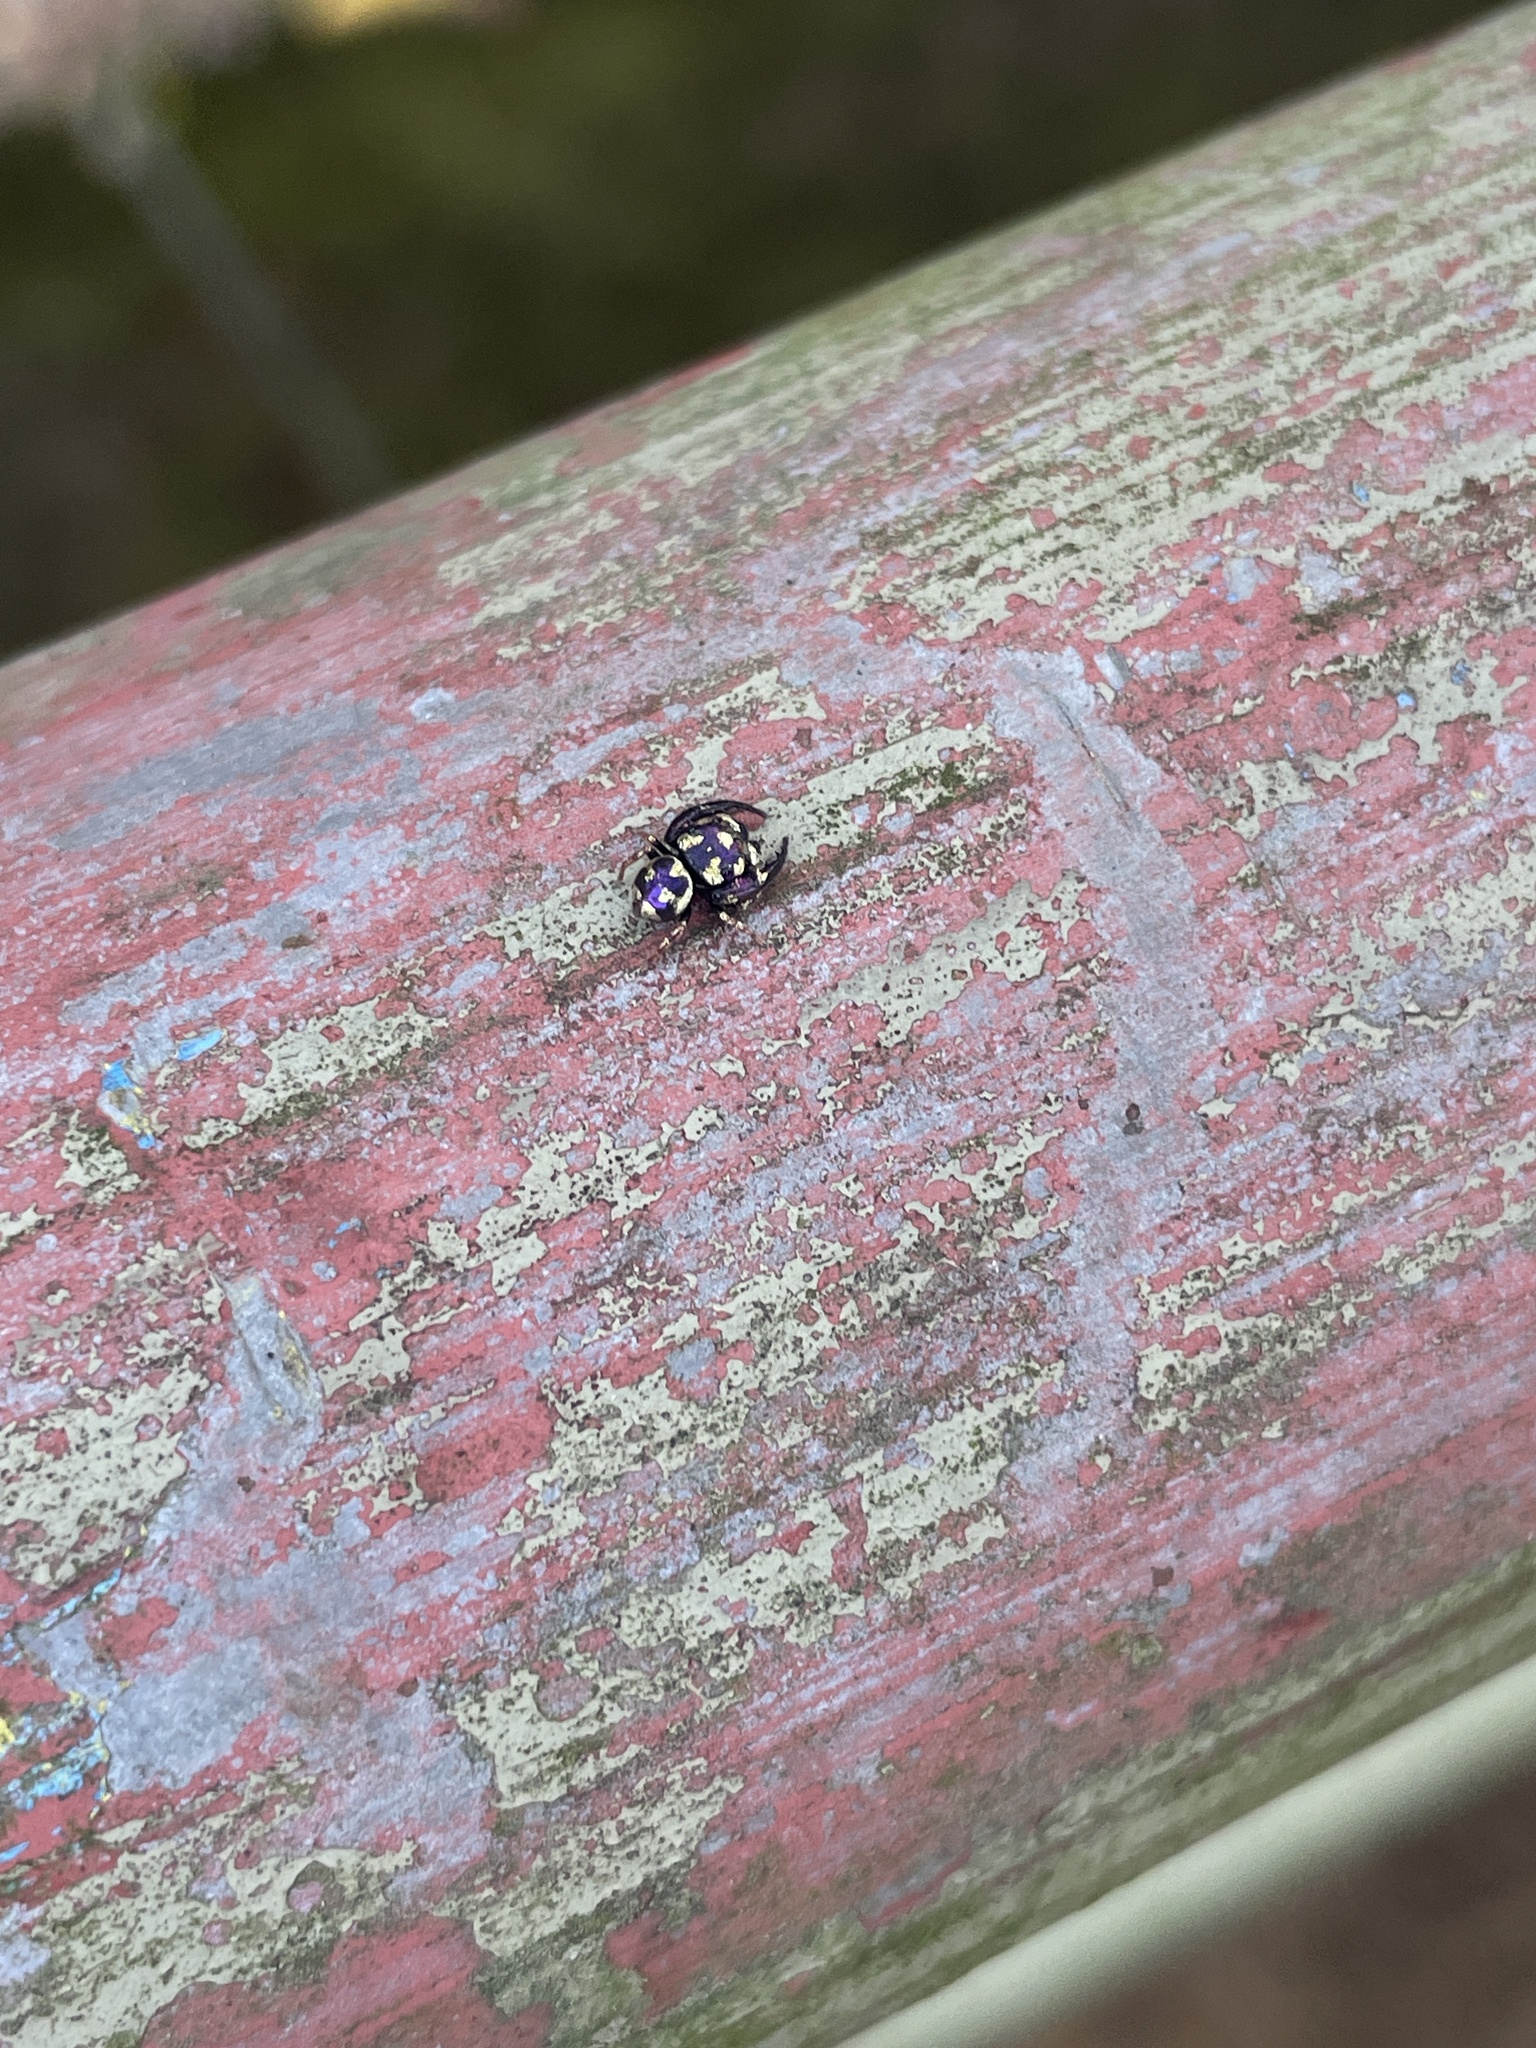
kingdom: Animalia
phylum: Arthropoda
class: Arachnida
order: Araneae
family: Salticidae
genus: Irura
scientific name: Irura bidenticulata
